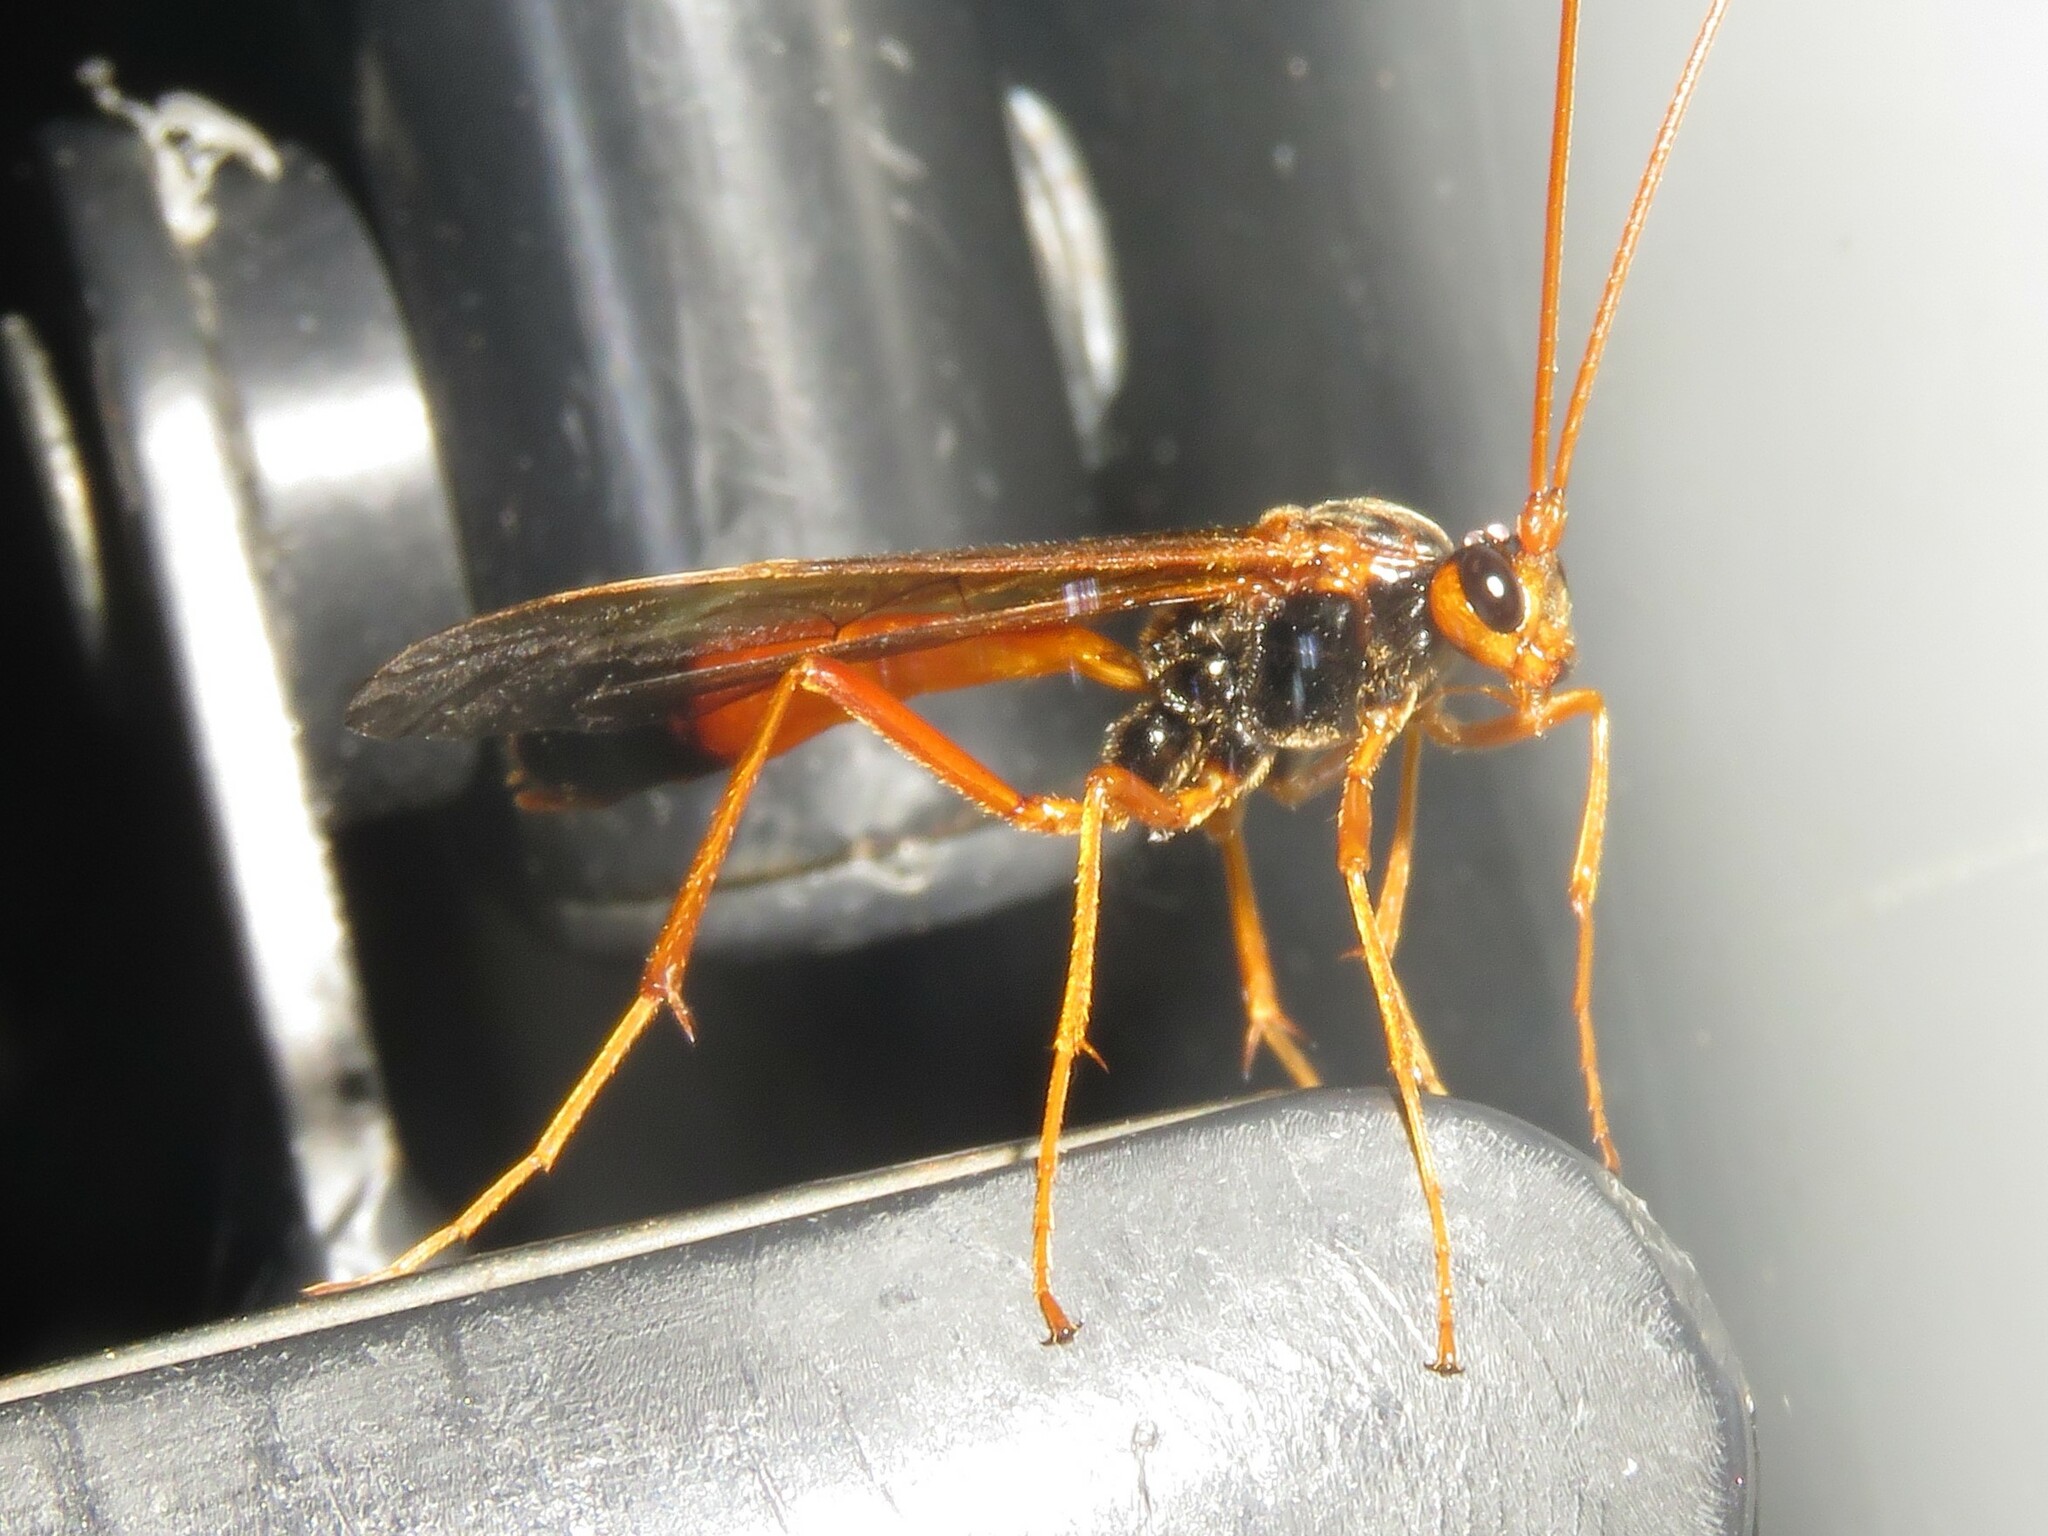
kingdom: Animalia
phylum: Arthropoda
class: Insecta
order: Hymenoptera
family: Ichneumonidae
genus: Opheltes
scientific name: Opheltes glaucopterus
